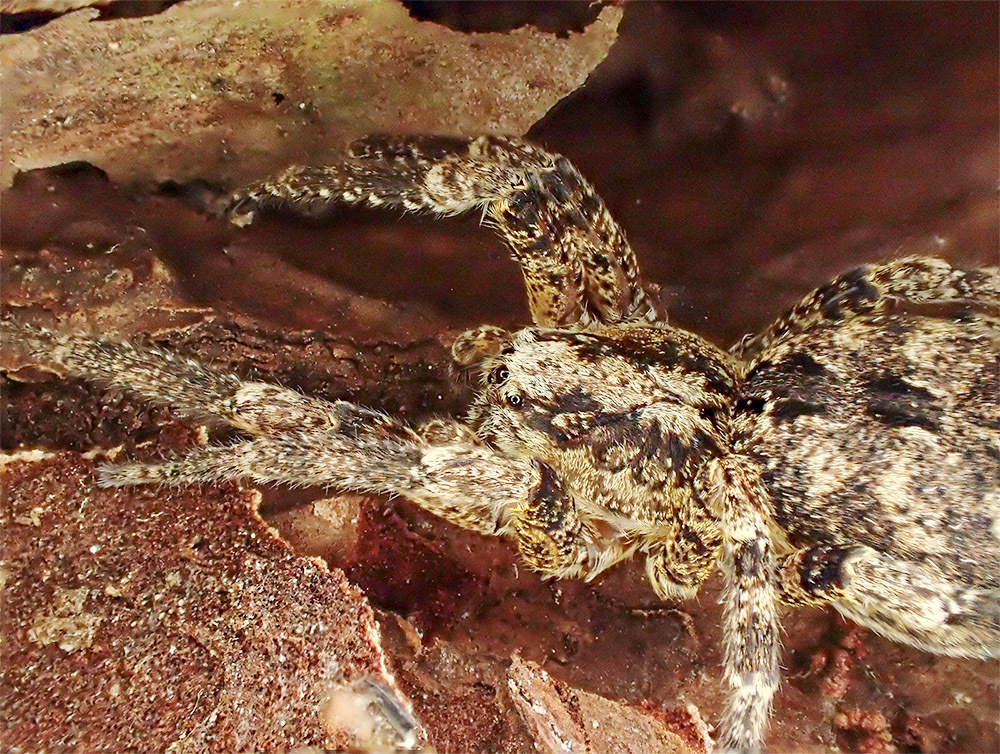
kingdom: Animalia
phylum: Arthropoda
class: Arachnida
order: Araneae
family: Zoropsidae
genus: Zoropsis
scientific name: Zoropsis spinimana
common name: Zoropsid spider
